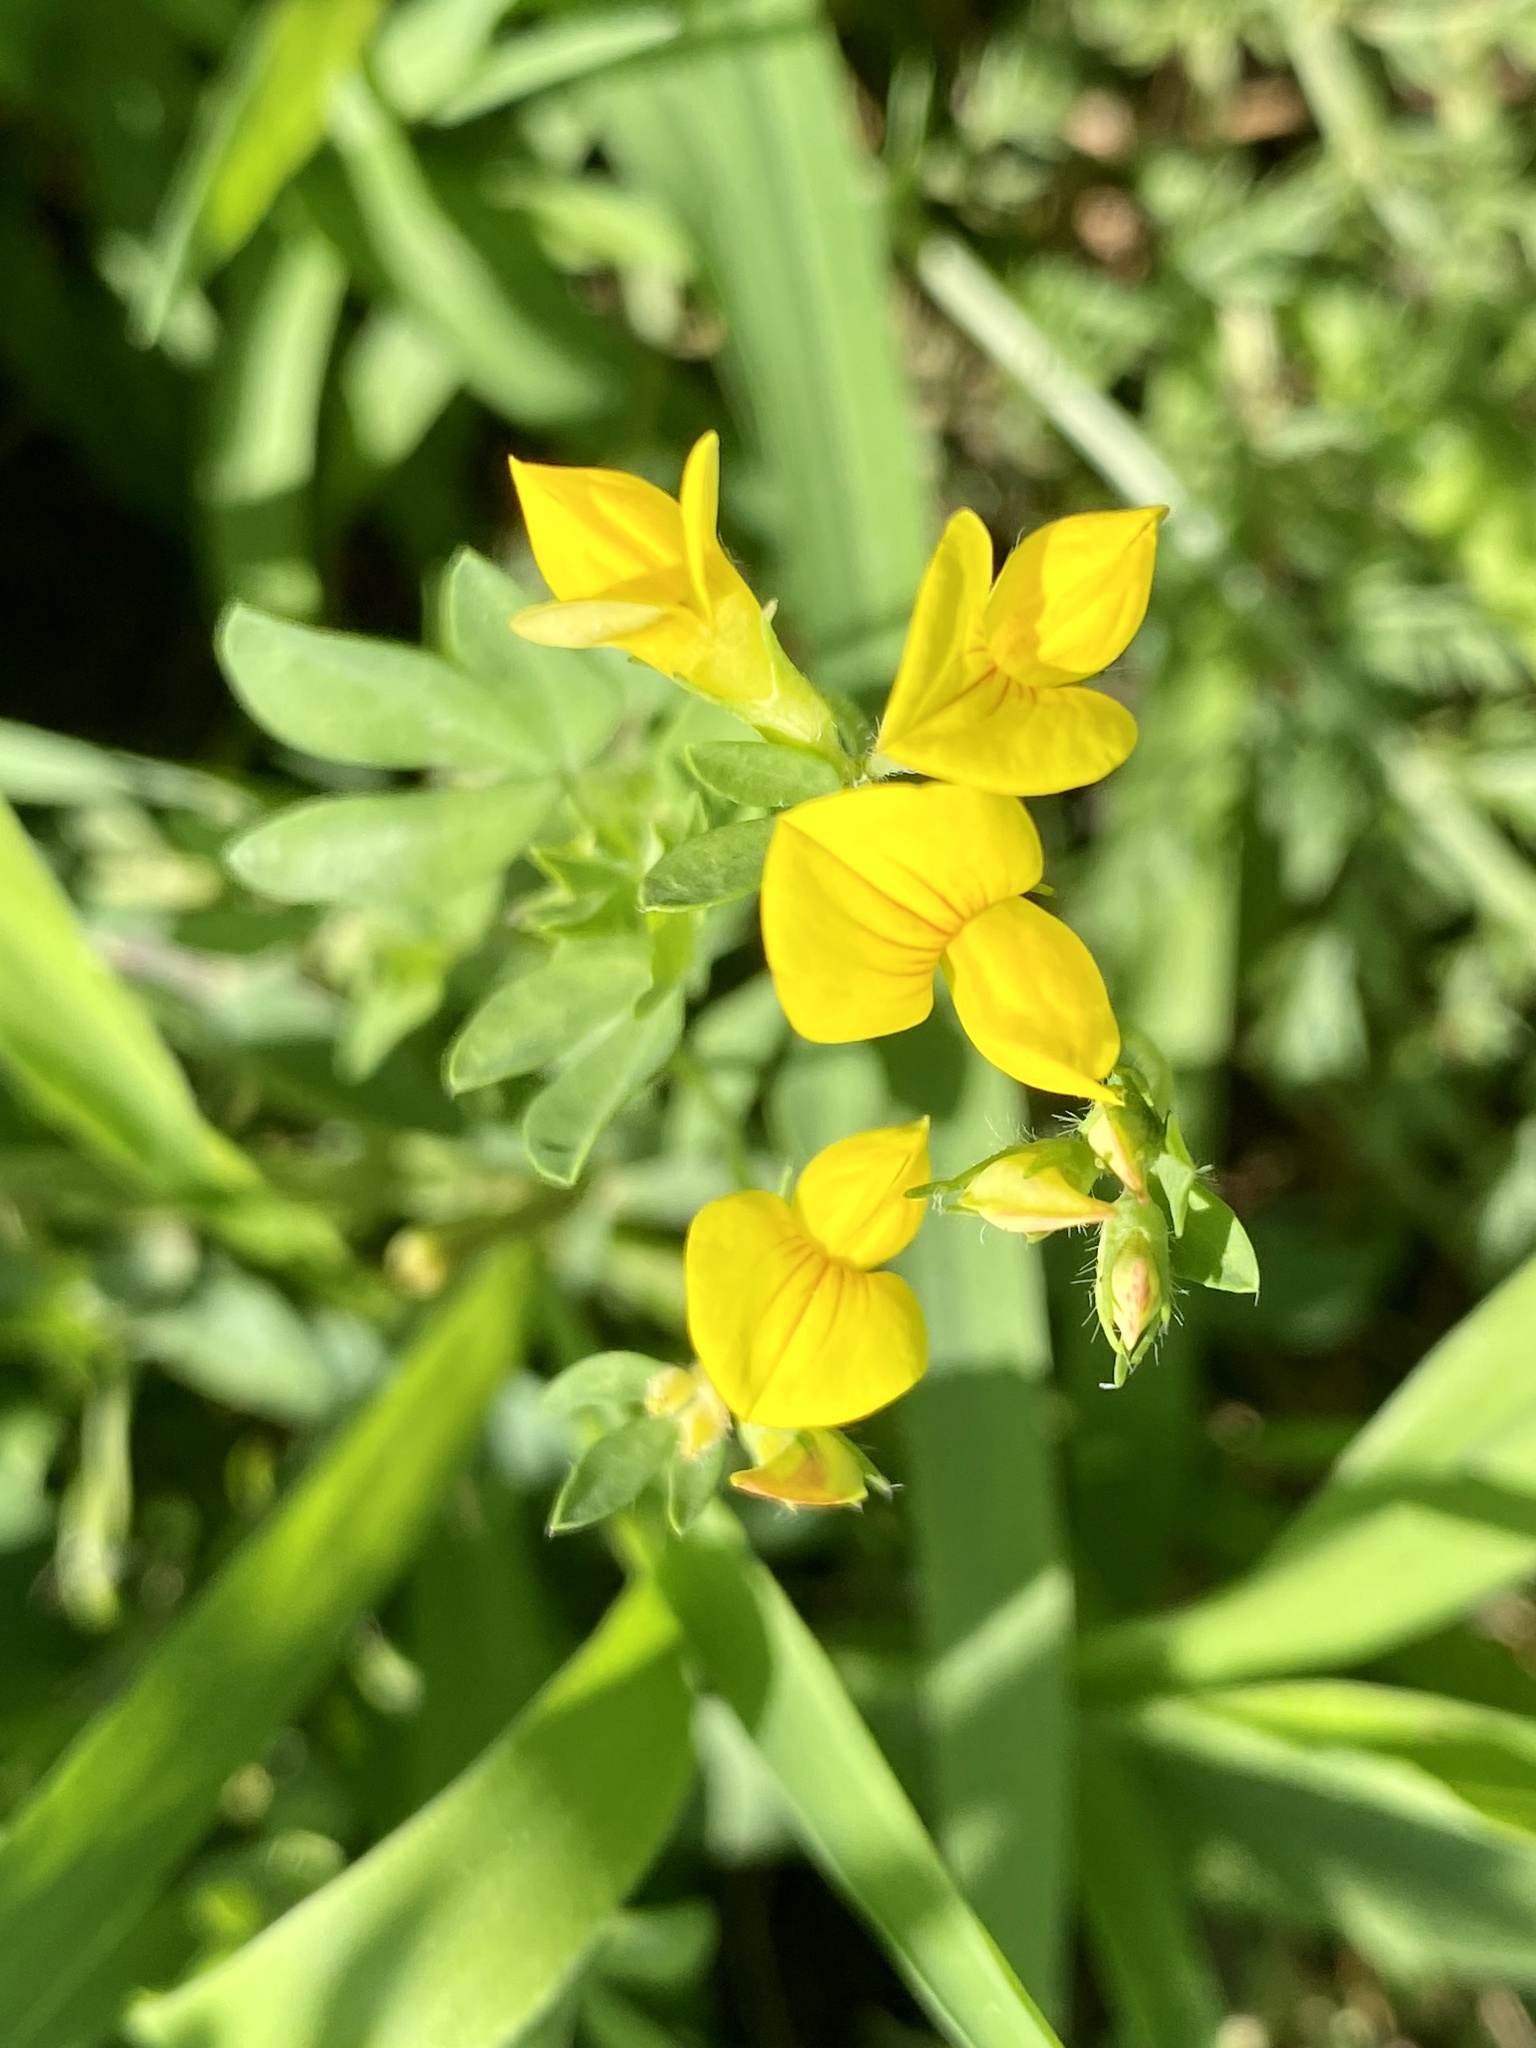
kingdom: Plantae
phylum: Tracheophyta
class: Magnoliopsida
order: Fabales
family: Fabaceae
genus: Lotus
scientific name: Lotus corniculatus
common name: Common bird's-foot-trefoil
